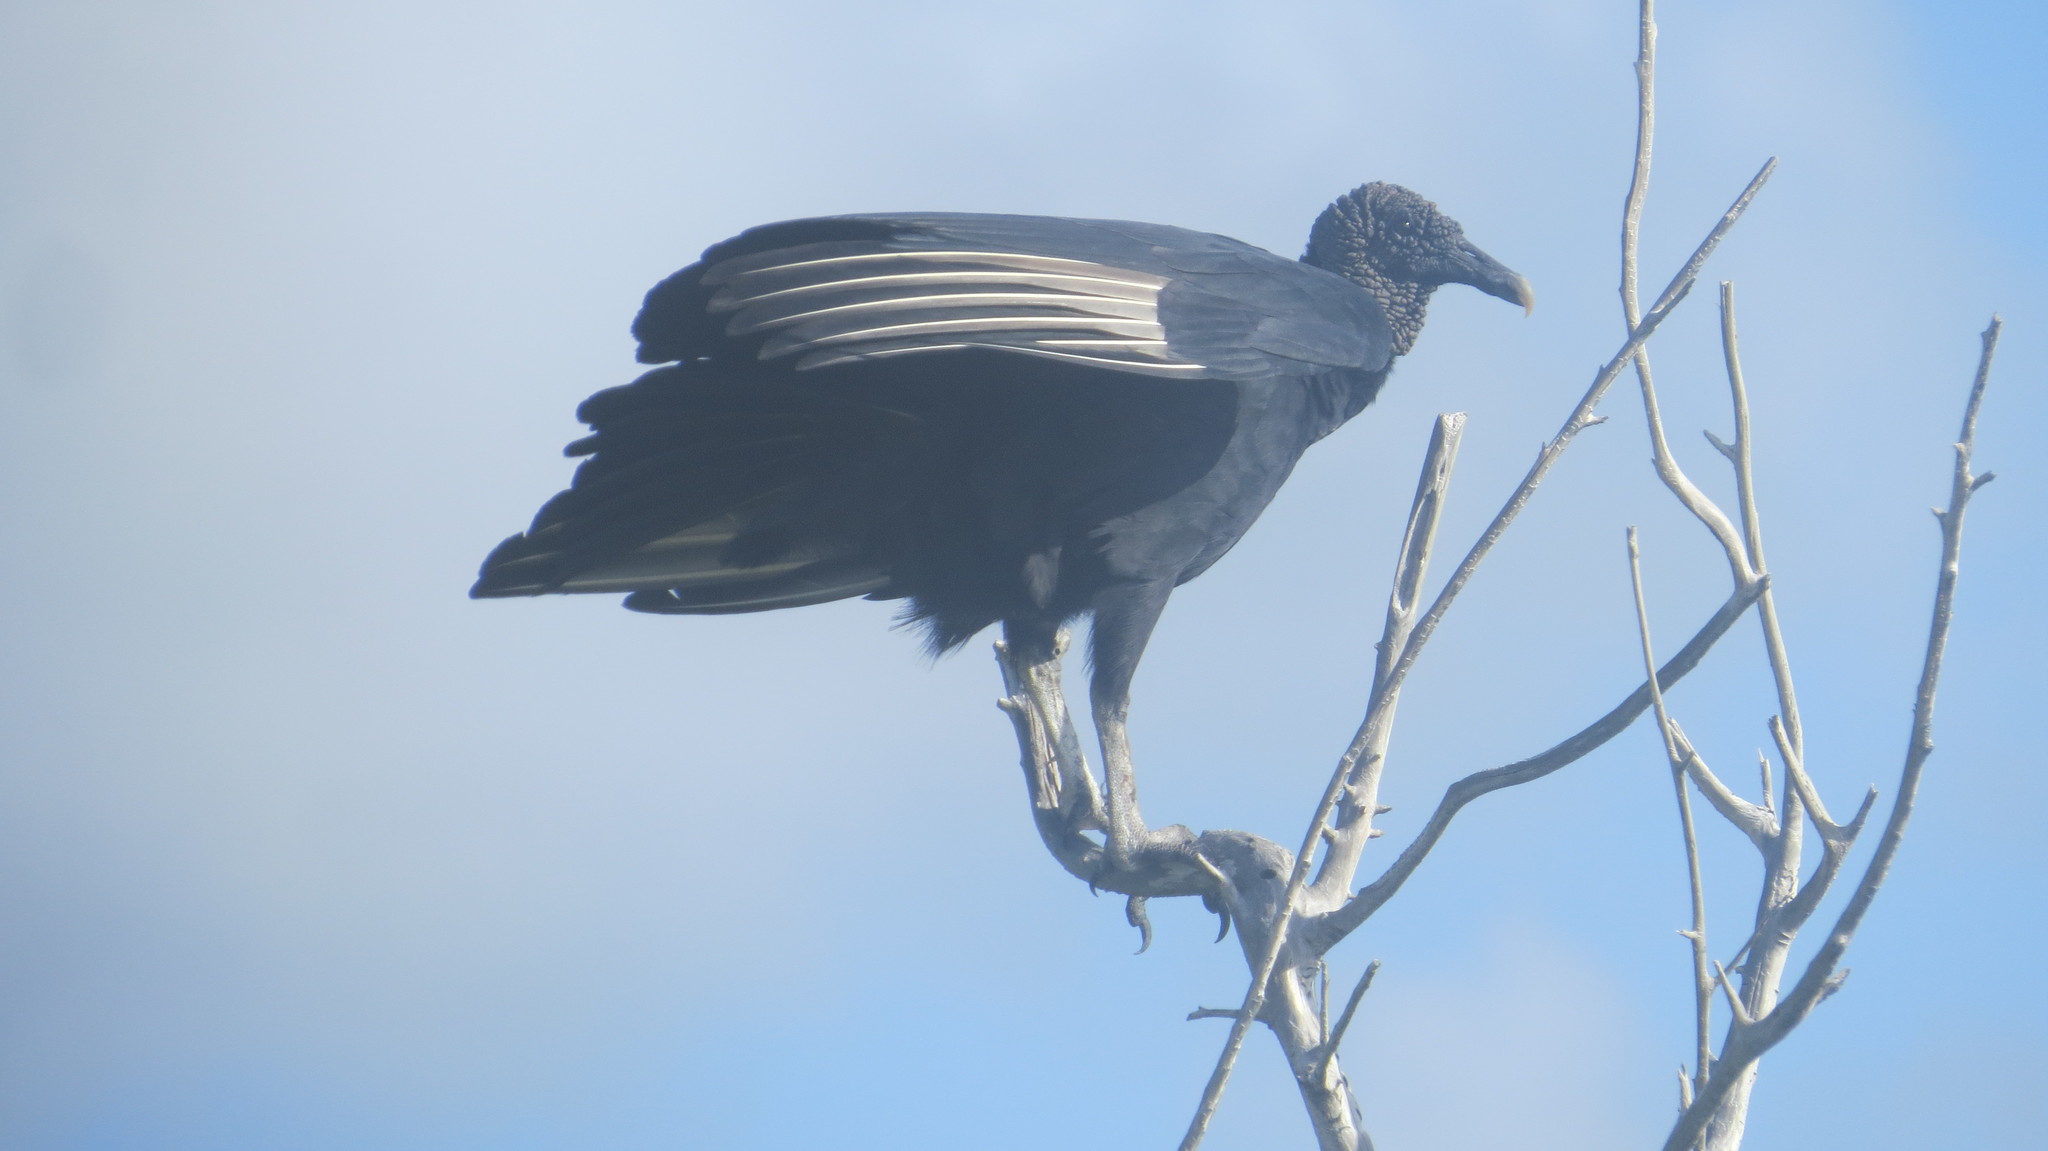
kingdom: Animalia
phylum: Chordata
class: Aves
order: Accipitriformes
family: Cathartidae
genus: Coragyps
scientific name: Coragyps atratus
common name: Black vulture
